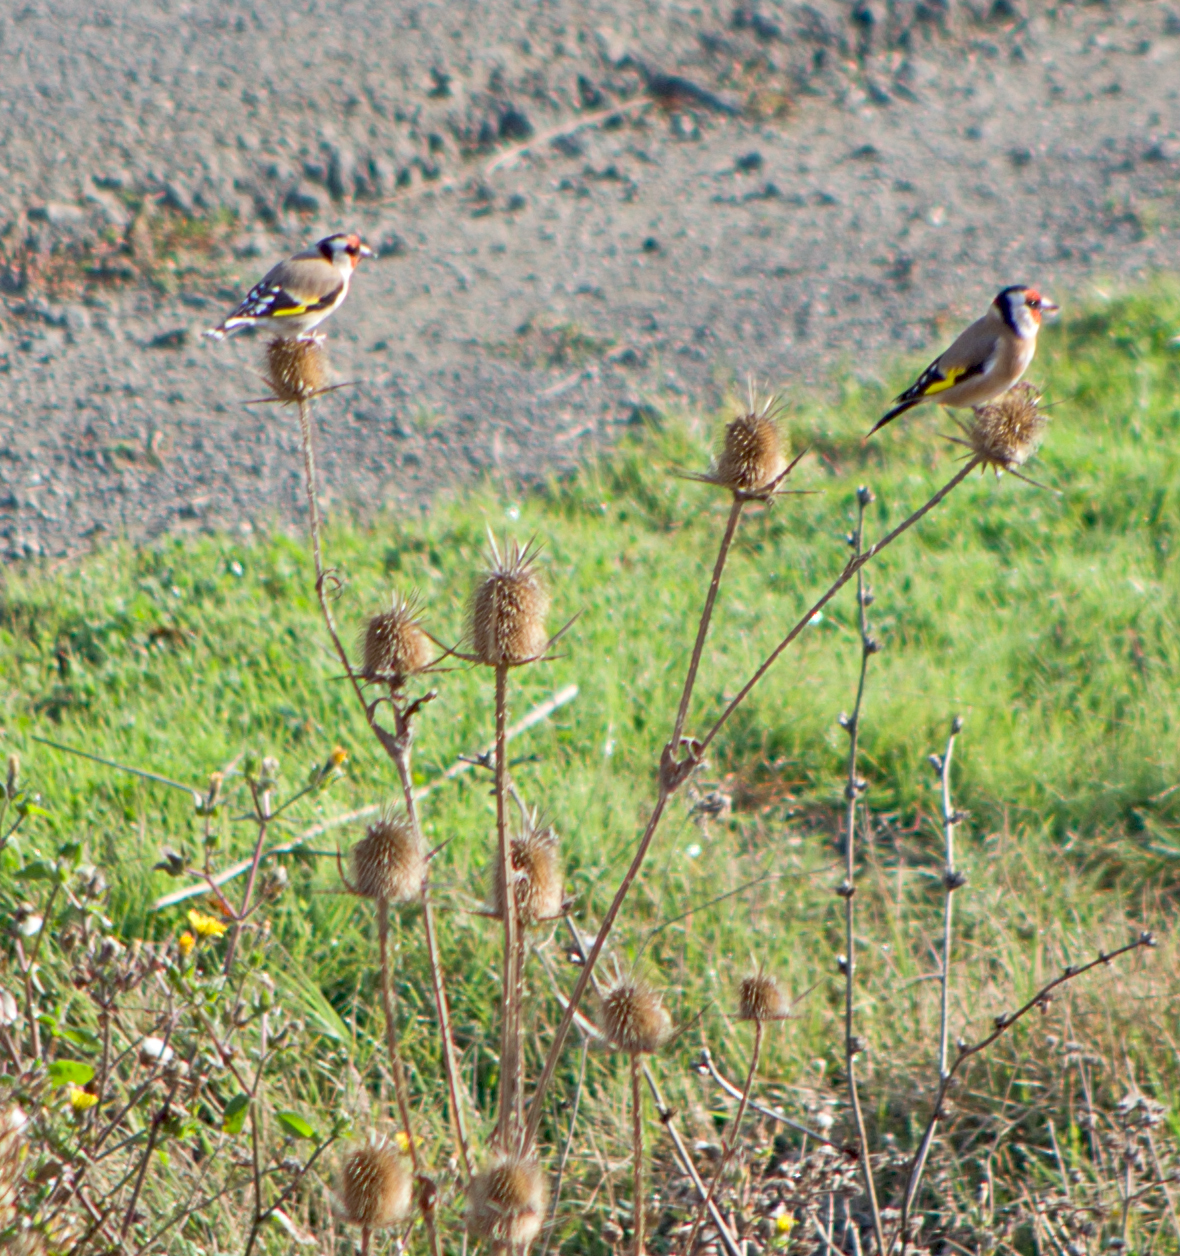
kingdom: Animalia
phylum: Chordata
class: Aves
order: Passeriformes
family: Fringillidae
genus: Carduelis
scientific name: Carduelis carduelis
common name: European goldfinch
